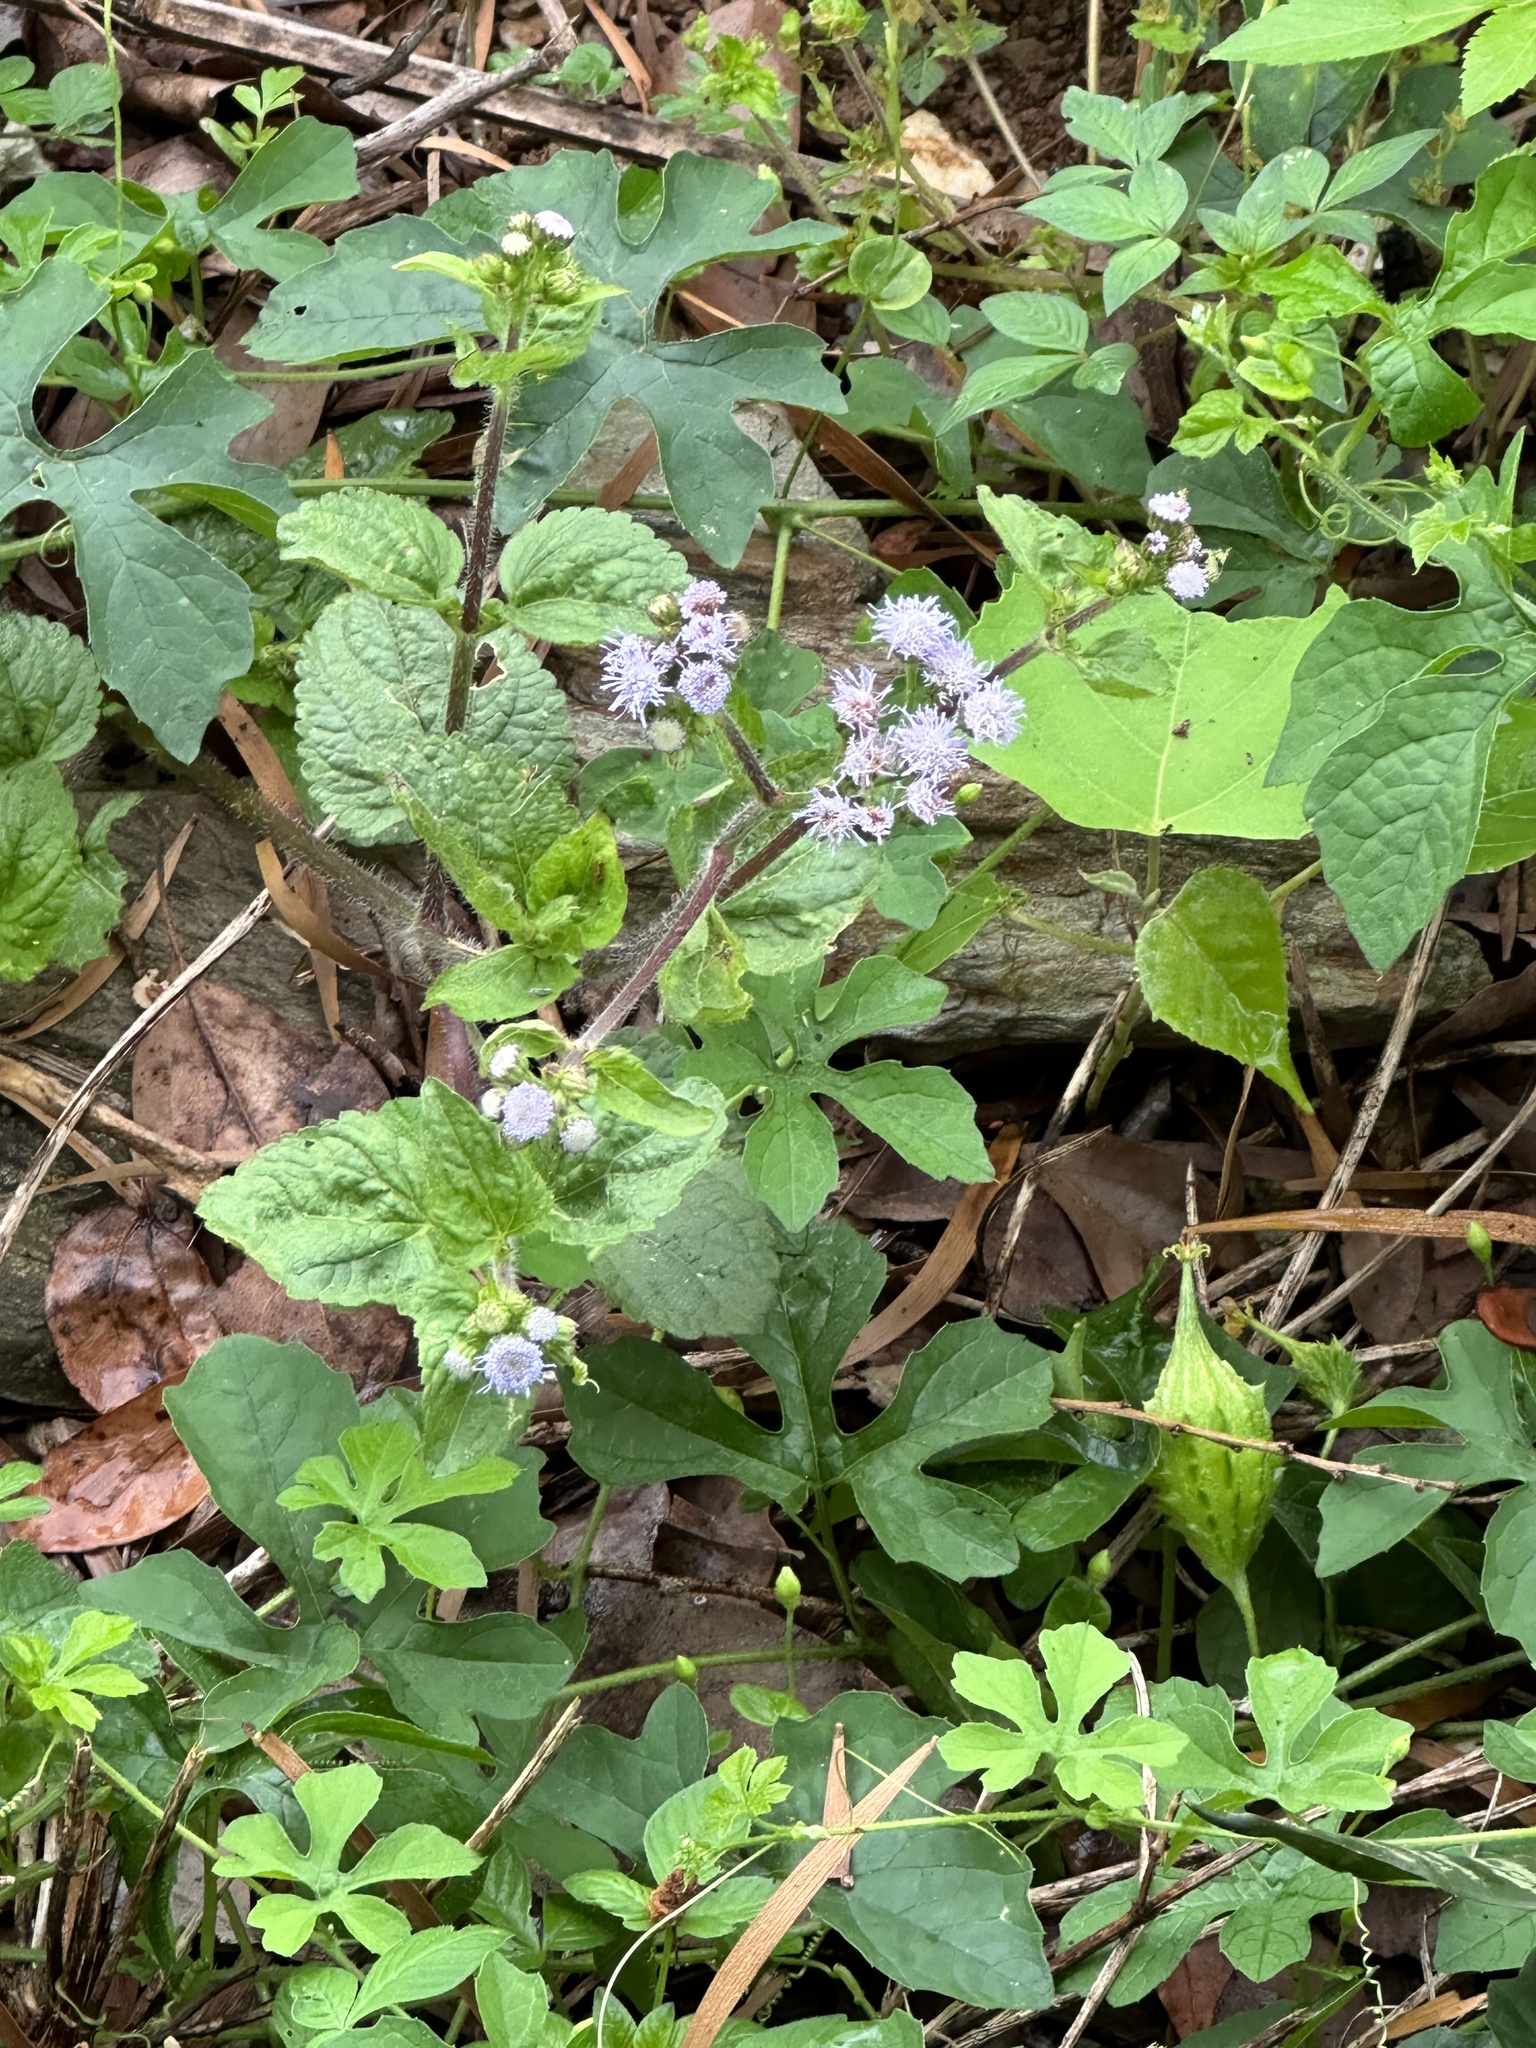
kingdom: Plantae
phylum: Tracheophyta
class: Magnoliopsida
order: Asterales
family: Asteraceae
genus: Ageratum
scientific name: Ageratum houstonianum
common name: Bluemink
